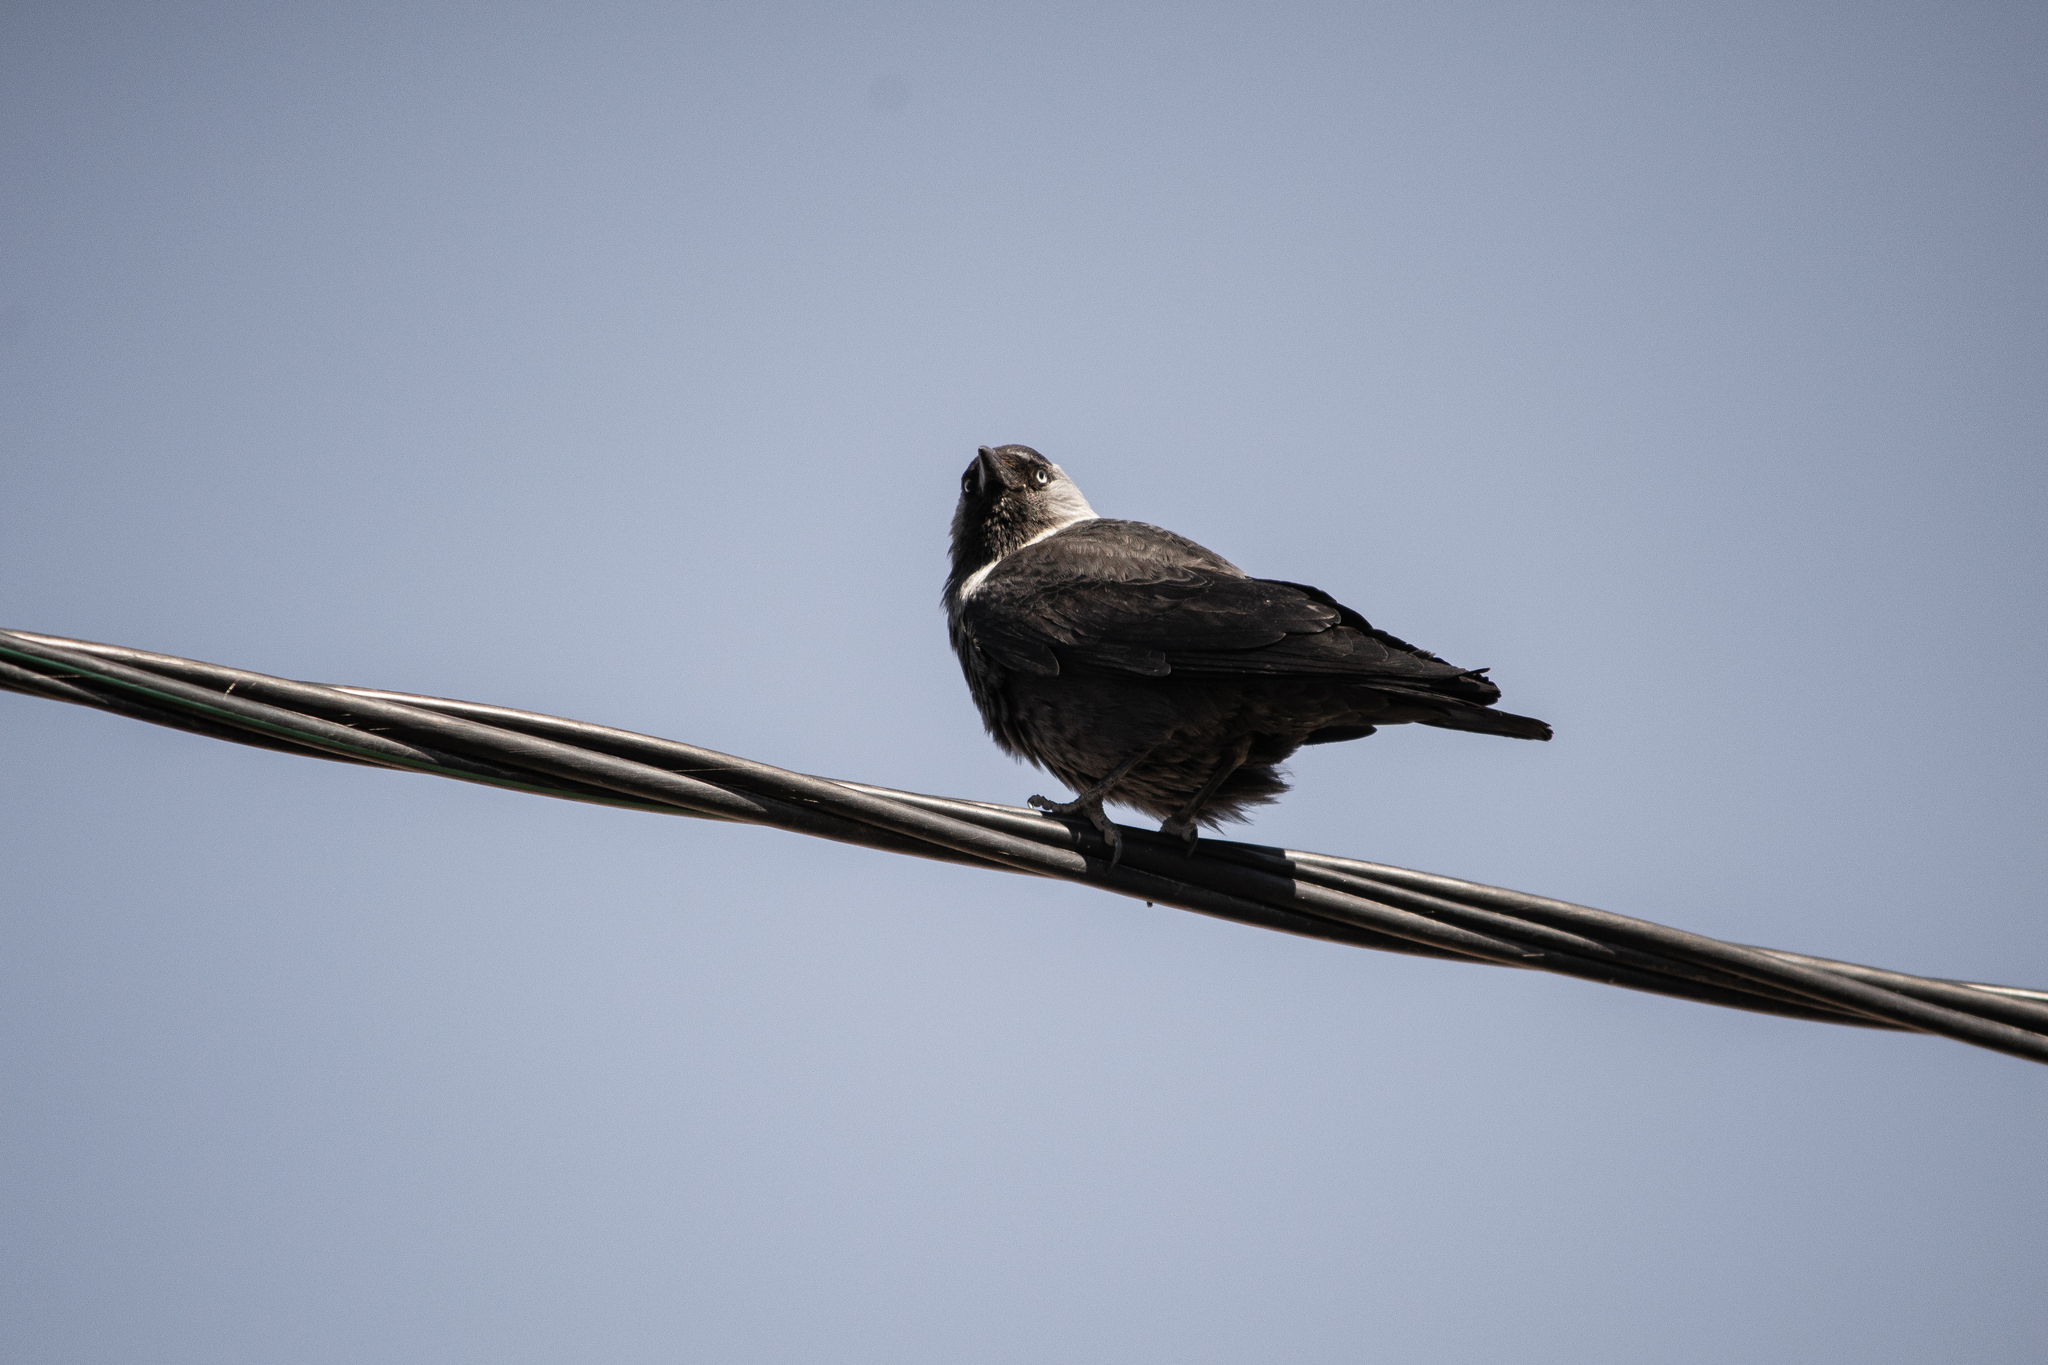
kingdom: Animalia
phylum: Chordata
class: Aves
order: Passeriformes
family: Corvidae
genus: Coloeus
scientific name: Coloeus monedula
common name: Western jackdaw
